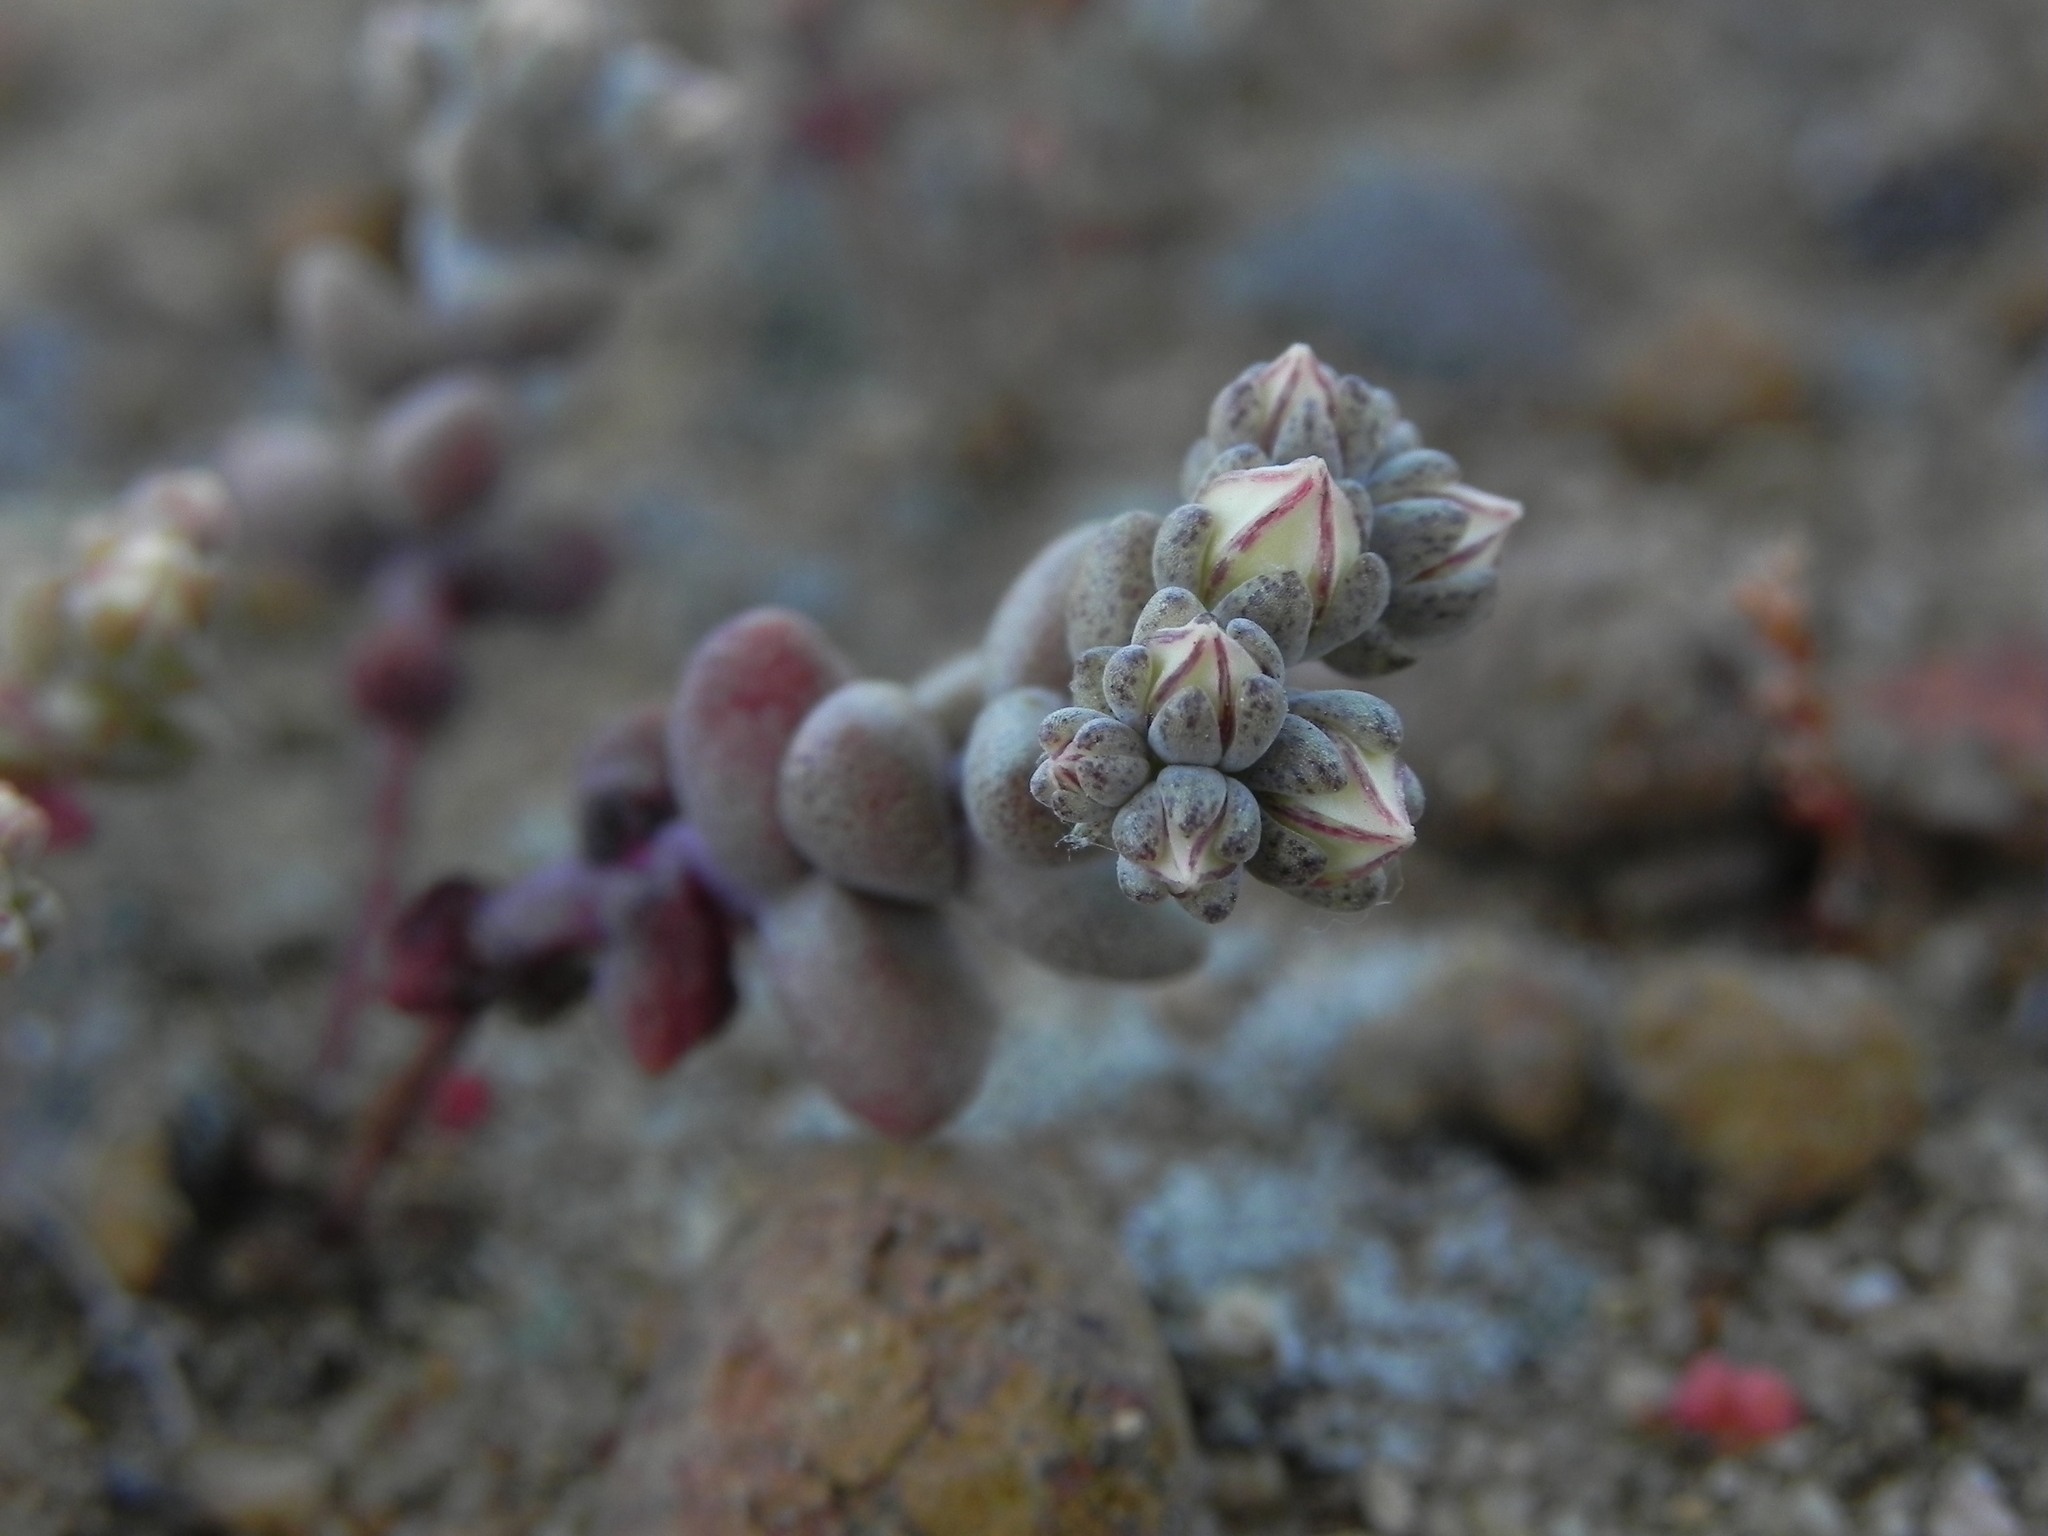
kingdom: Plantae
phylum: Tracheophyta
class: Magnoliopsida
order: Saxifragales
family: Crassulaceae
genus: Dudleya
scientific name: Dudleya blochmaniae
